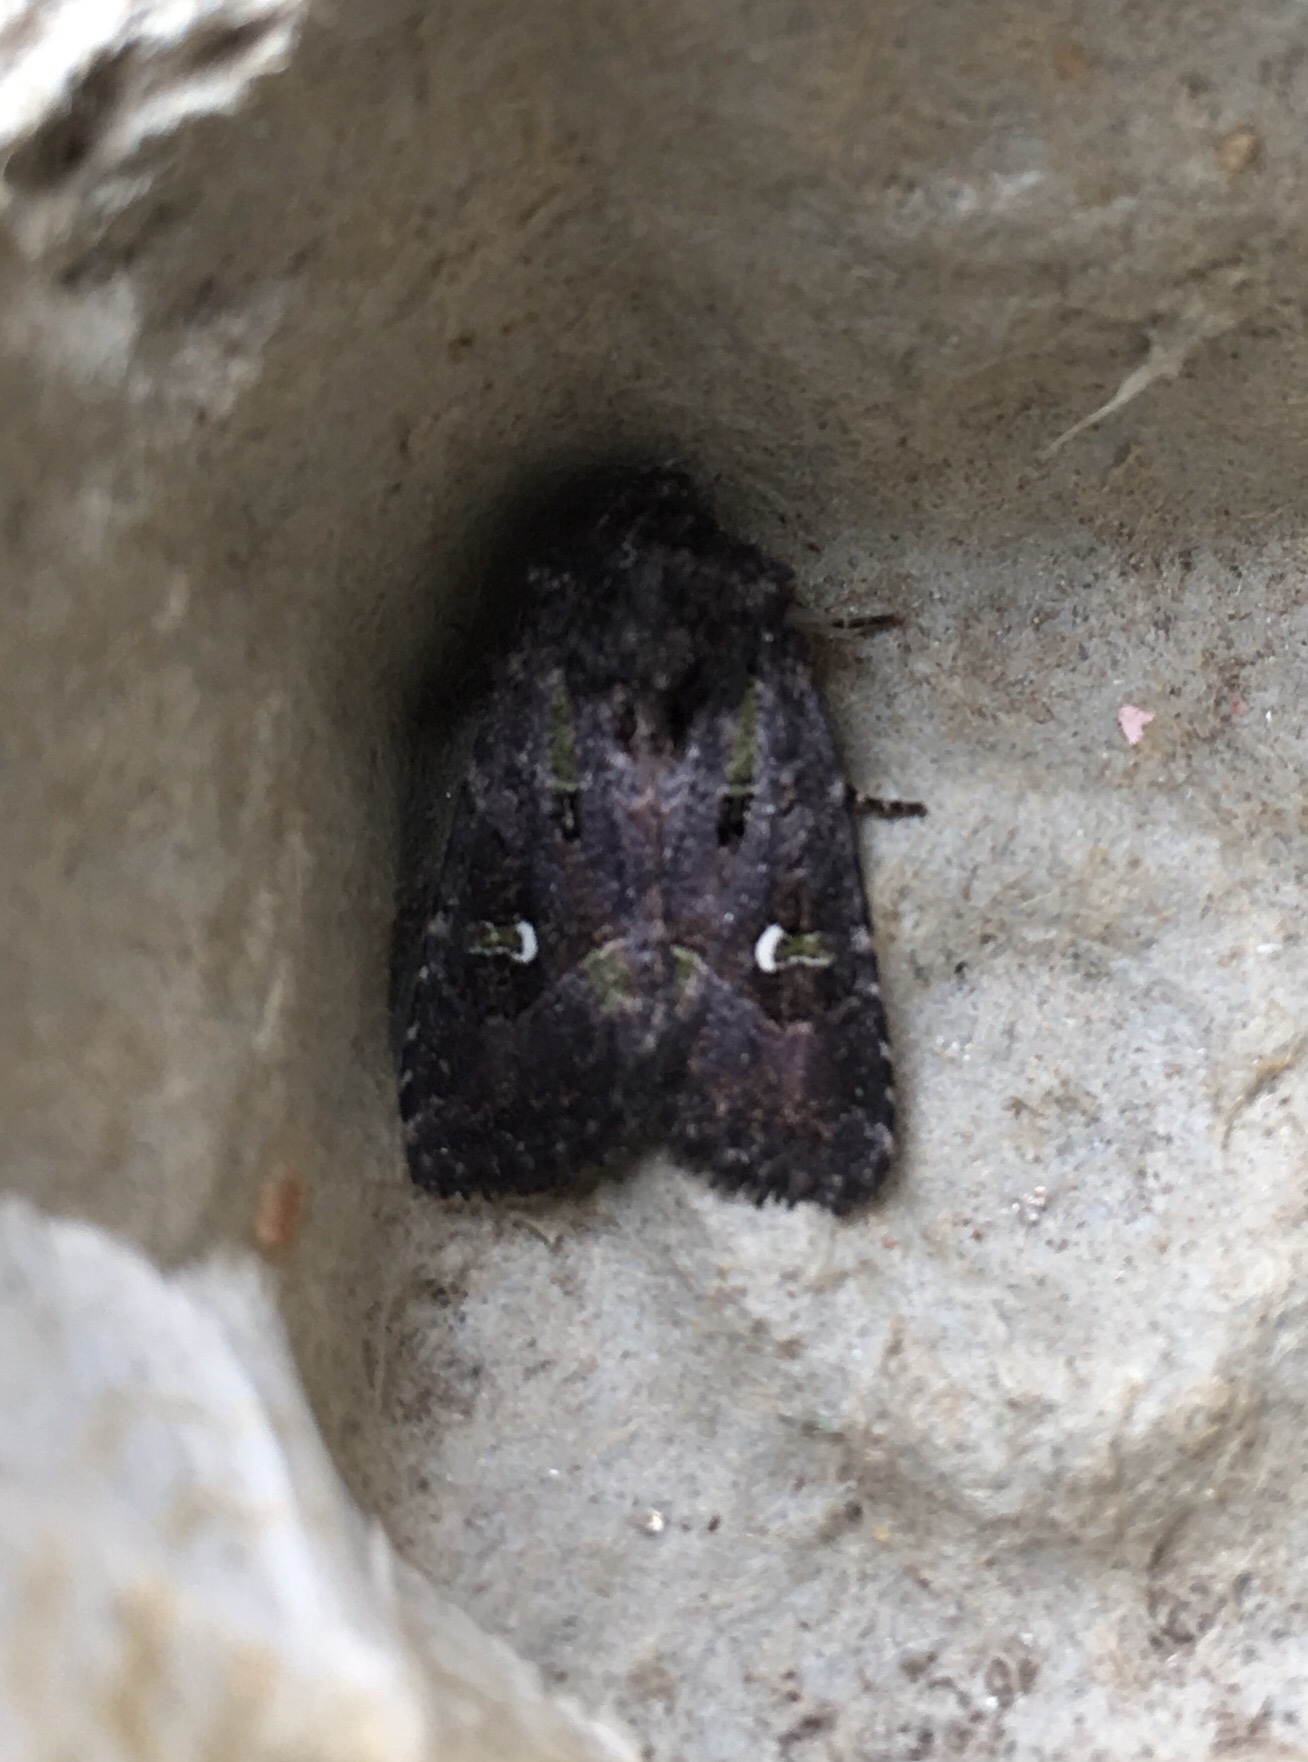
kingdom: Animalia
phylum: Arthropoda
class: Insecta
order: Lepidoptera
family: Noctuidae
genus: Lacinipolia
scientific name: Lacinipolia renigera
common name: Kidney-spotted minor
